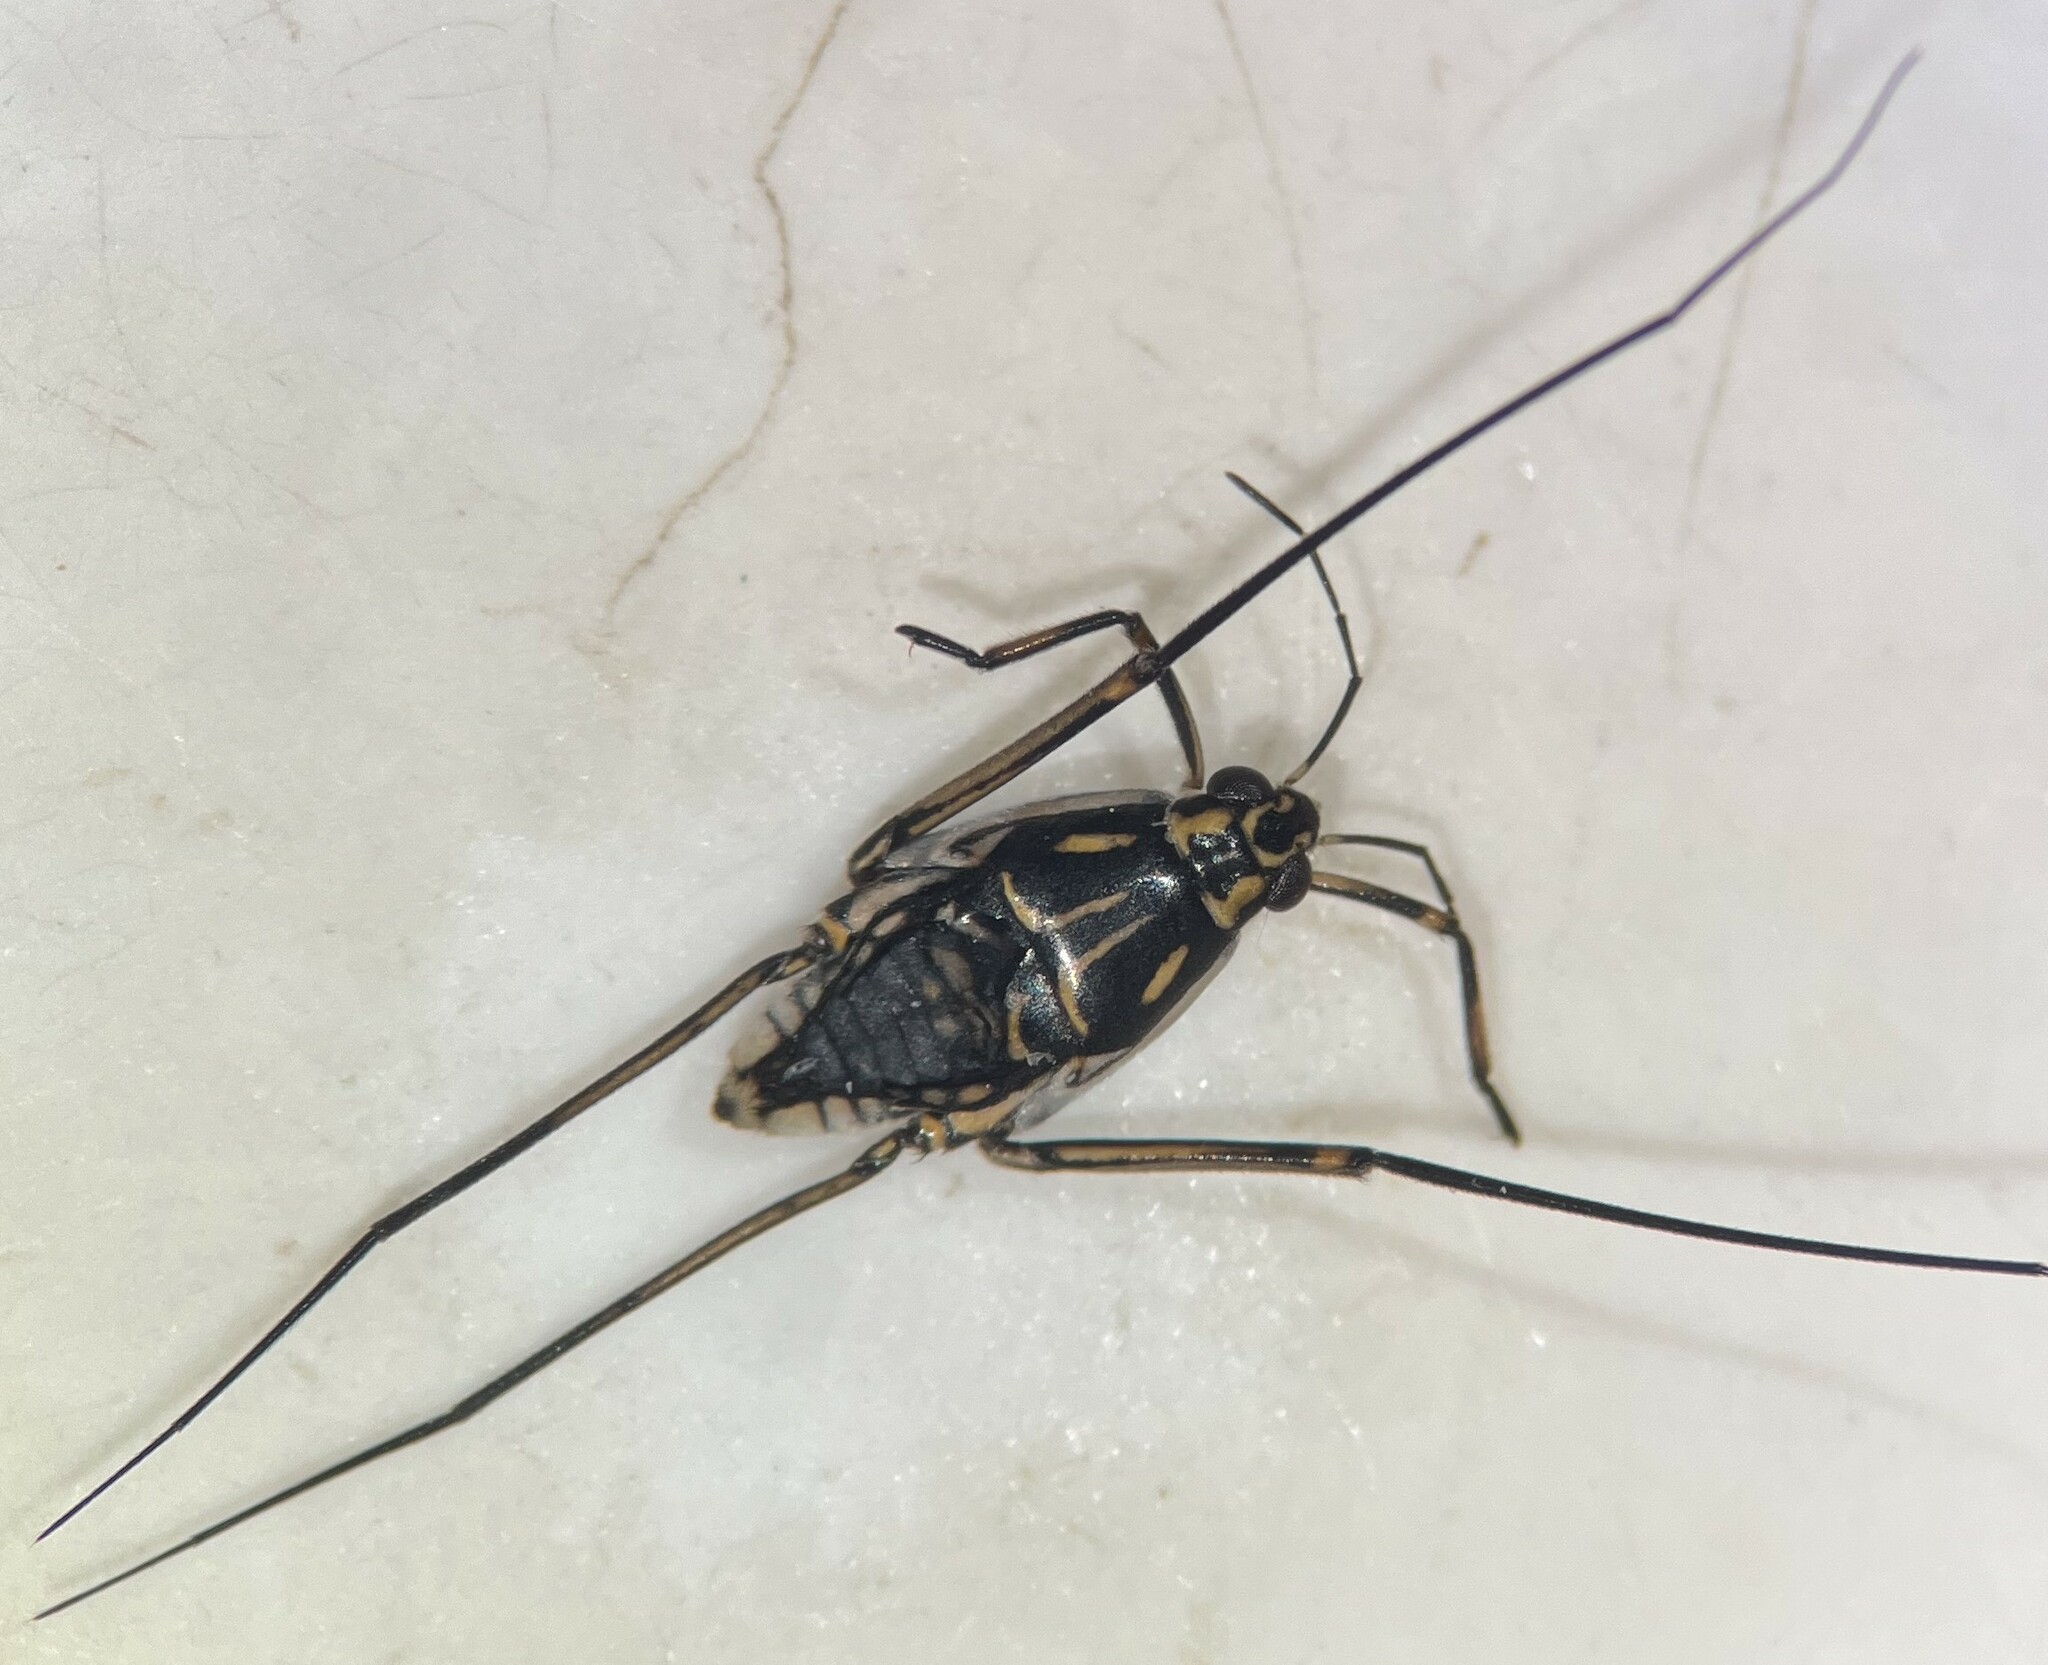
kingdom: Animalia
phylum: Arthropoda
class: Insecta
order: Hemiptera
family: Gerridae
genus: Trepobates
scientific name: Trepobates taylori
